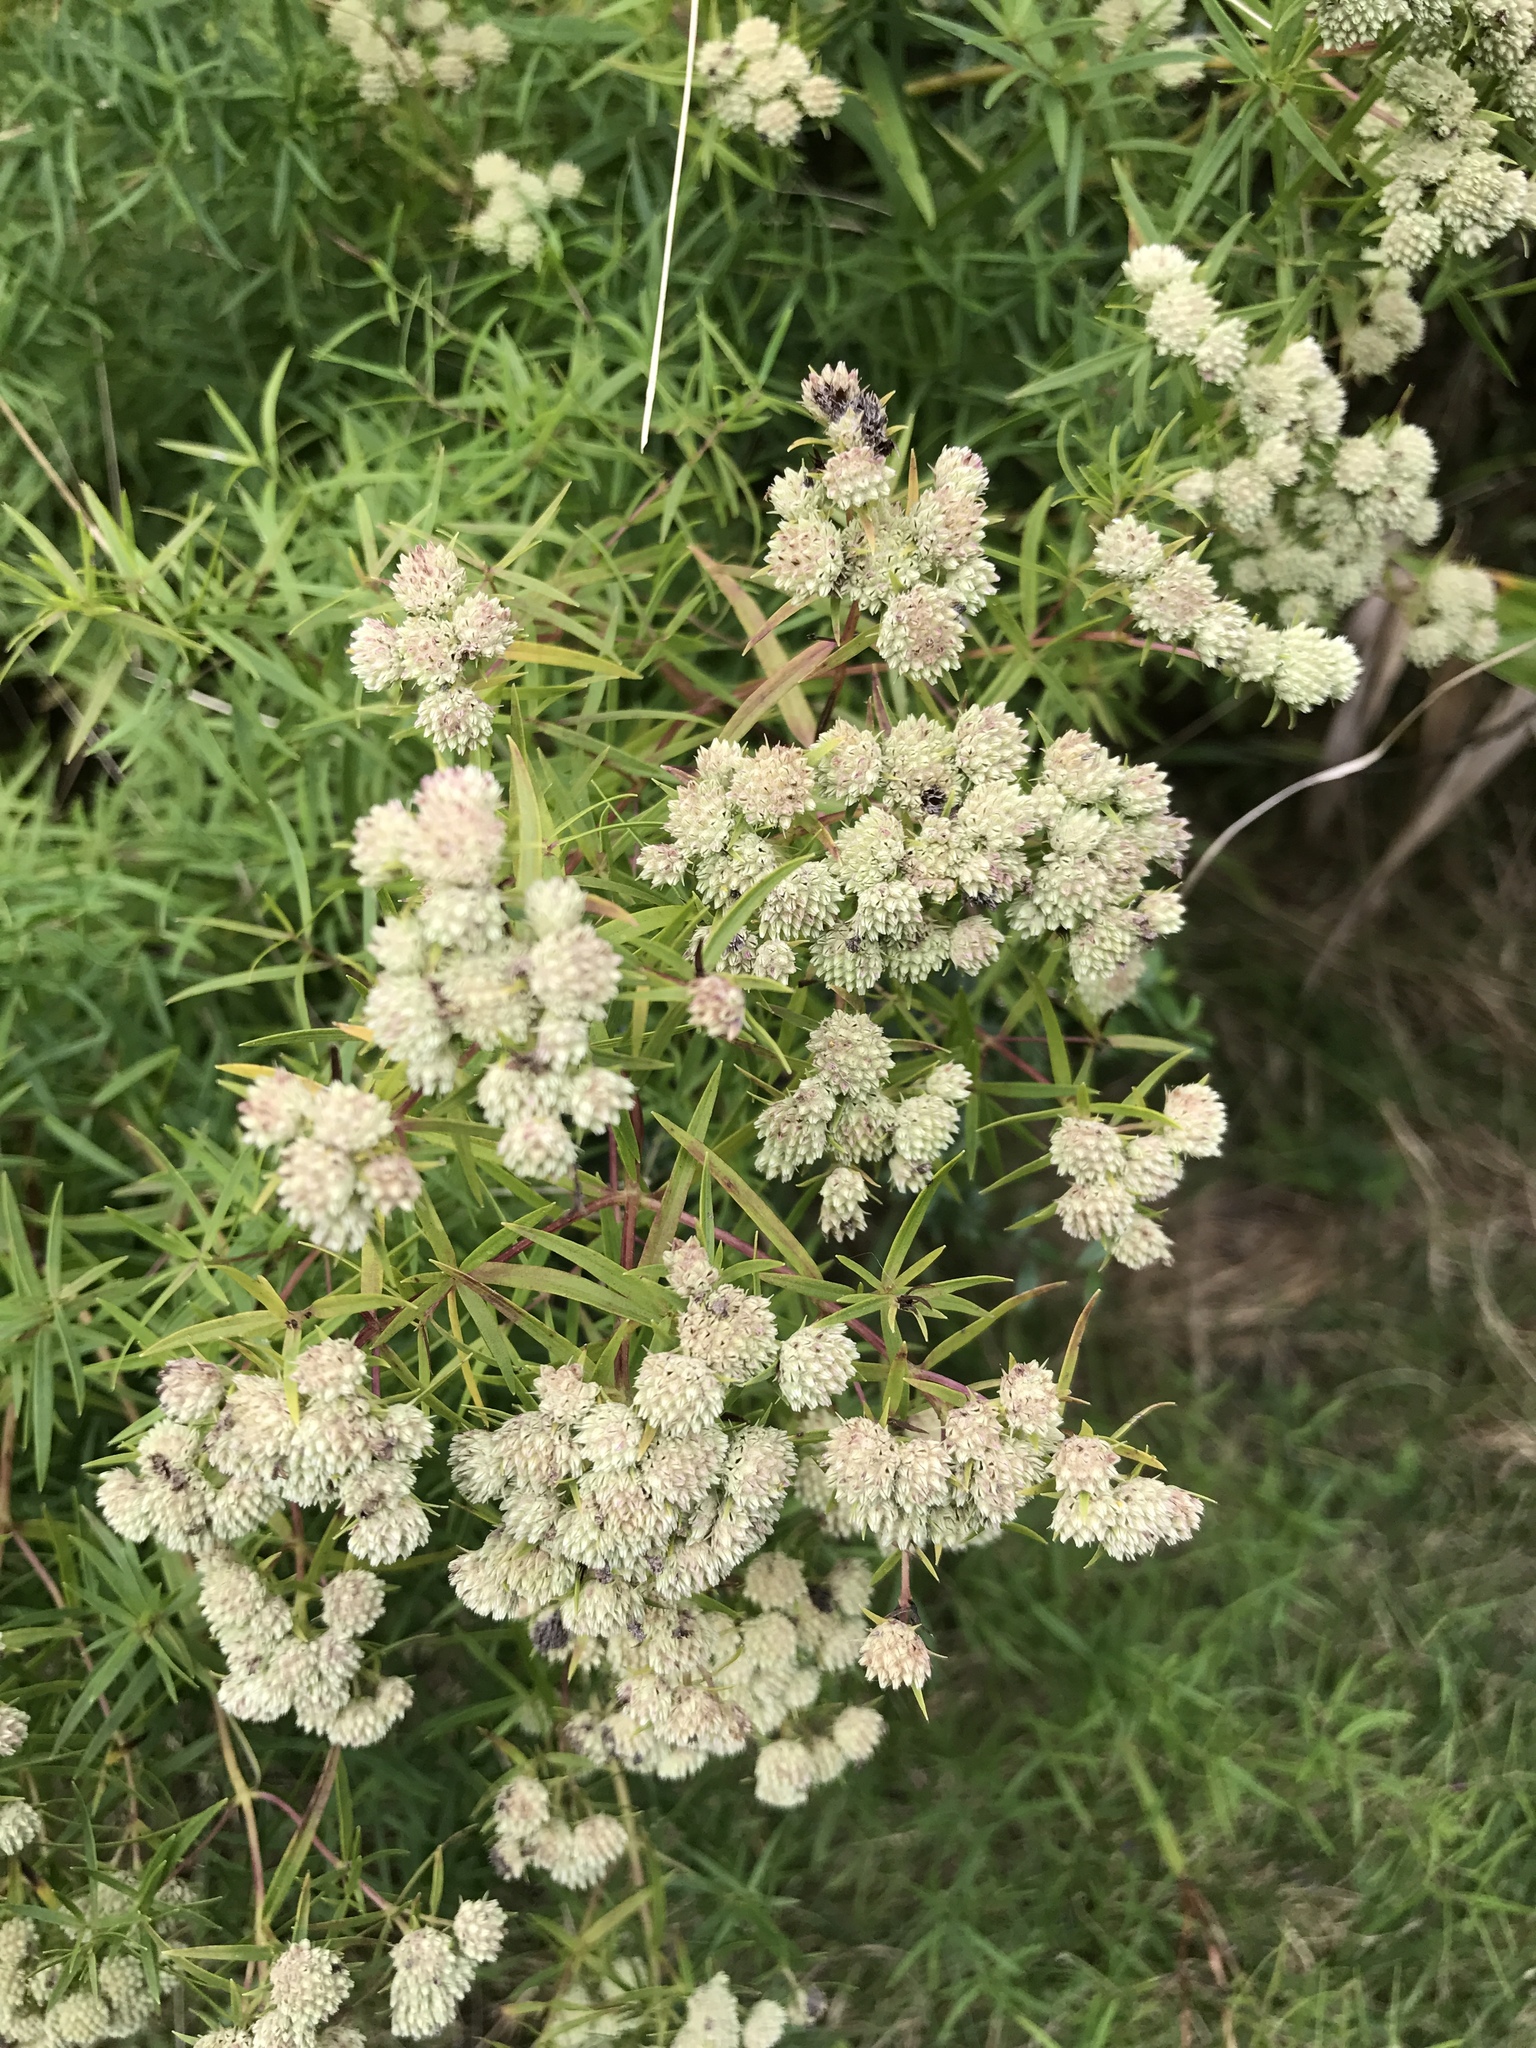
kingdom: Plantae
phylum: Tracheophyta
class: Magnoliopsida
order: Lamiales
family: Lamiaceae
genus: Pycnanthemum
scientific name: Pycnanthemum tenuifolium
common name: Narrow-leaf mountain-mint
